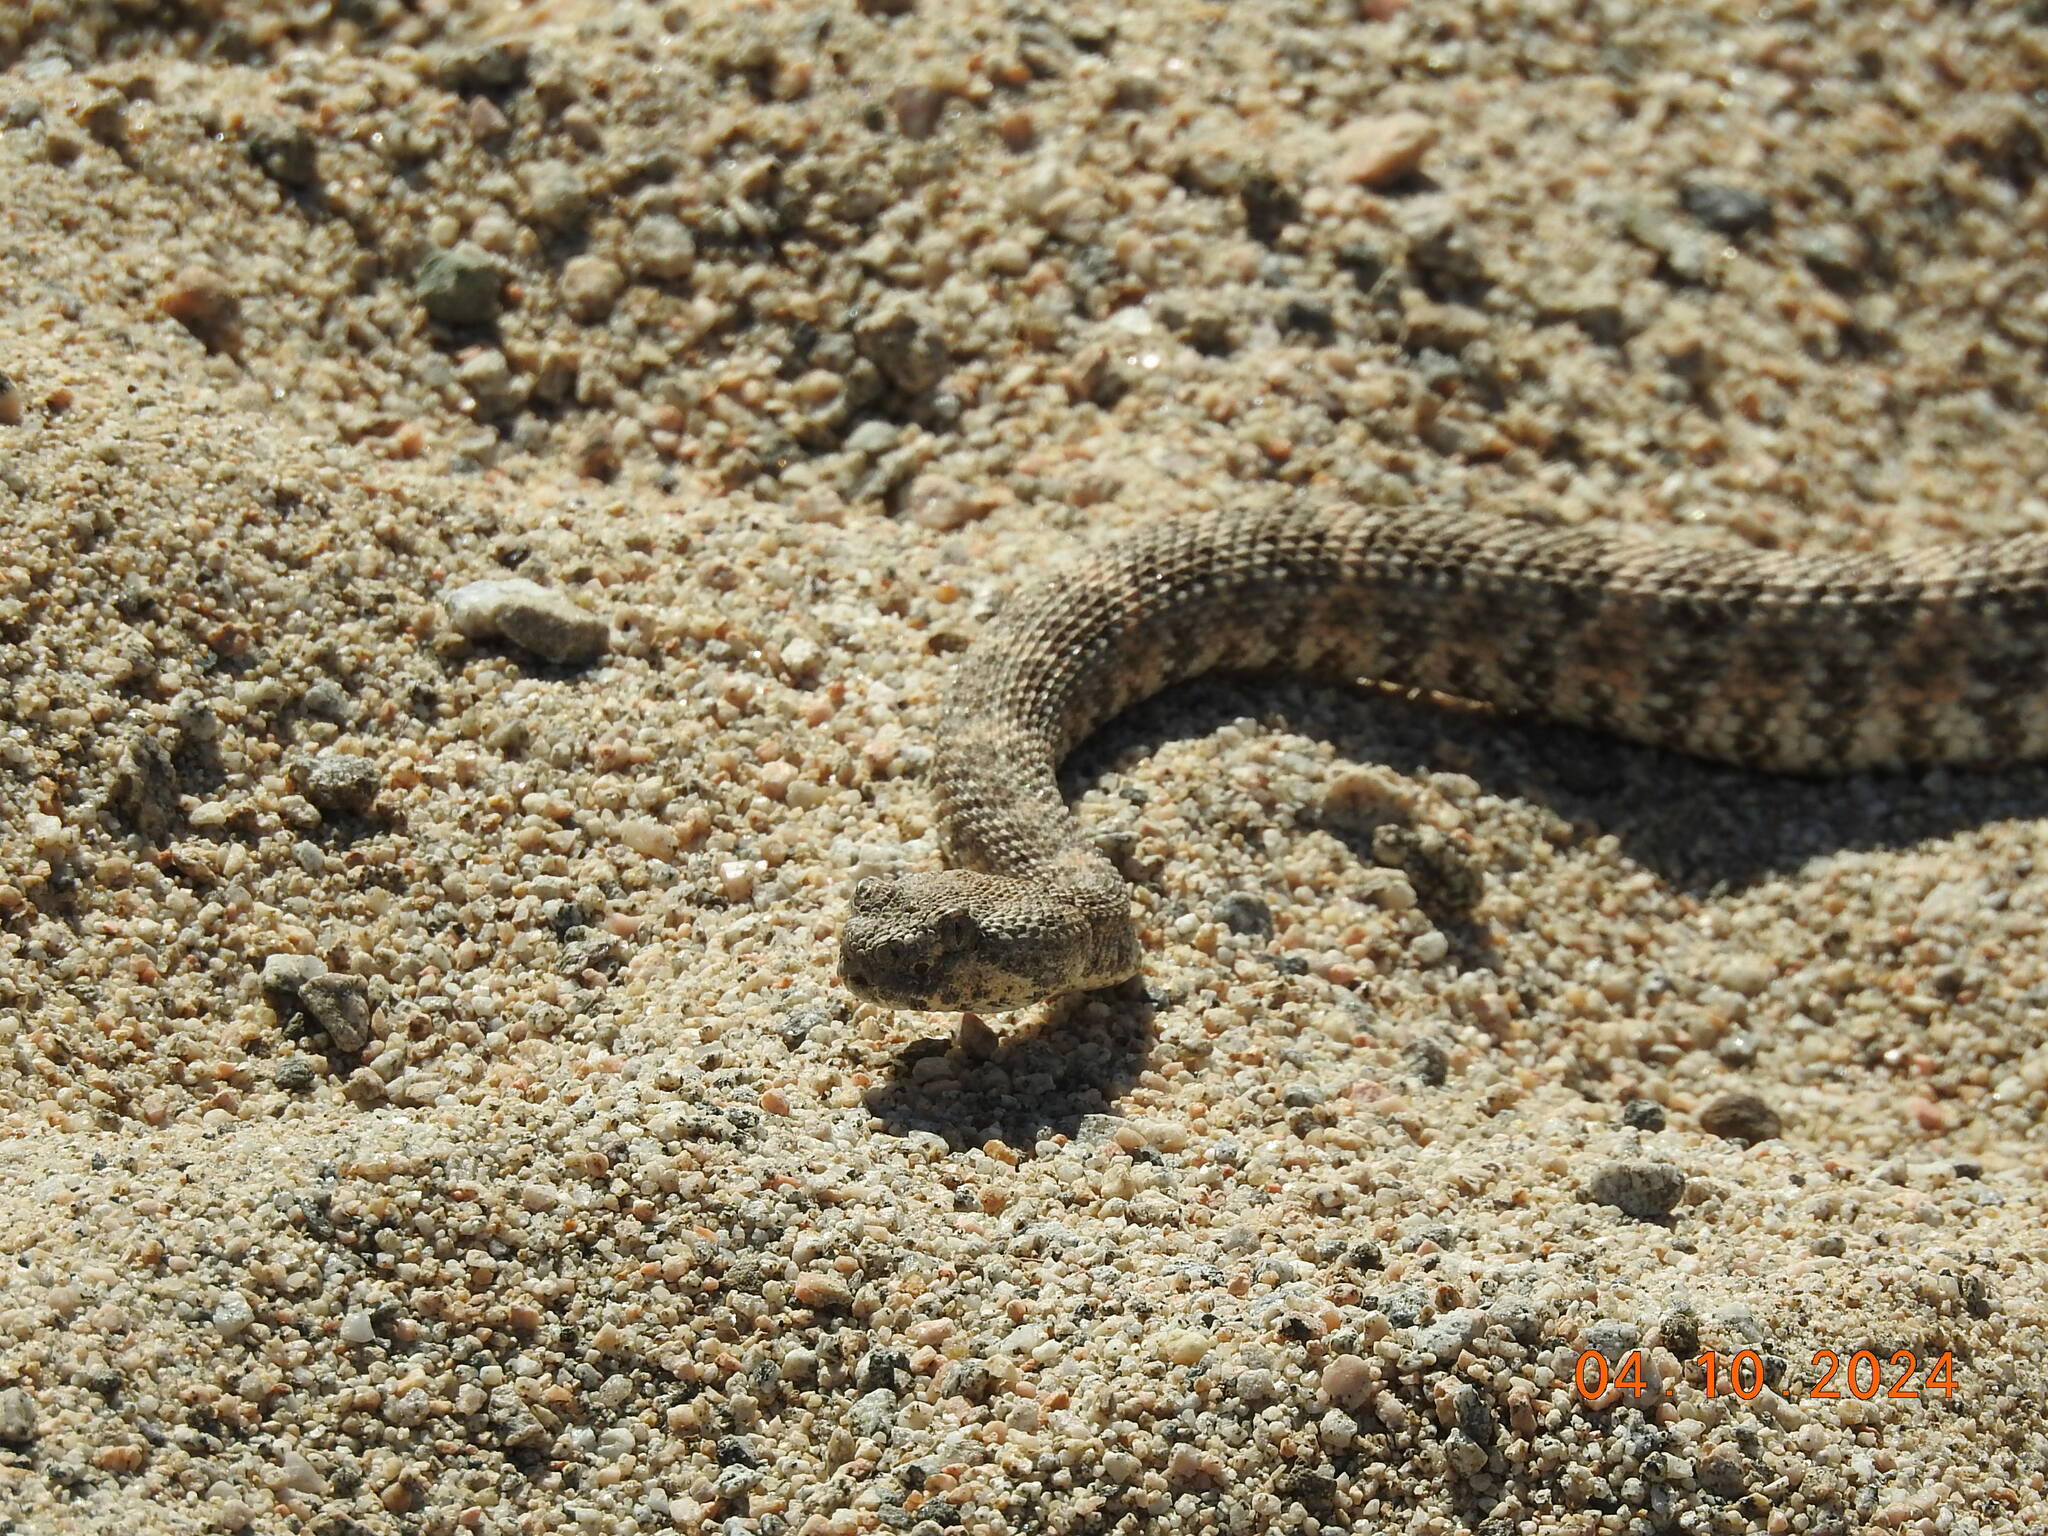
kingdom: Animalia
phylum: Chordata
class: Squamata
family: Viperidae
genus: Crotalus
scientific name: Crotalus pyrrhus
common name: Southwestern speckled rattlesnake
